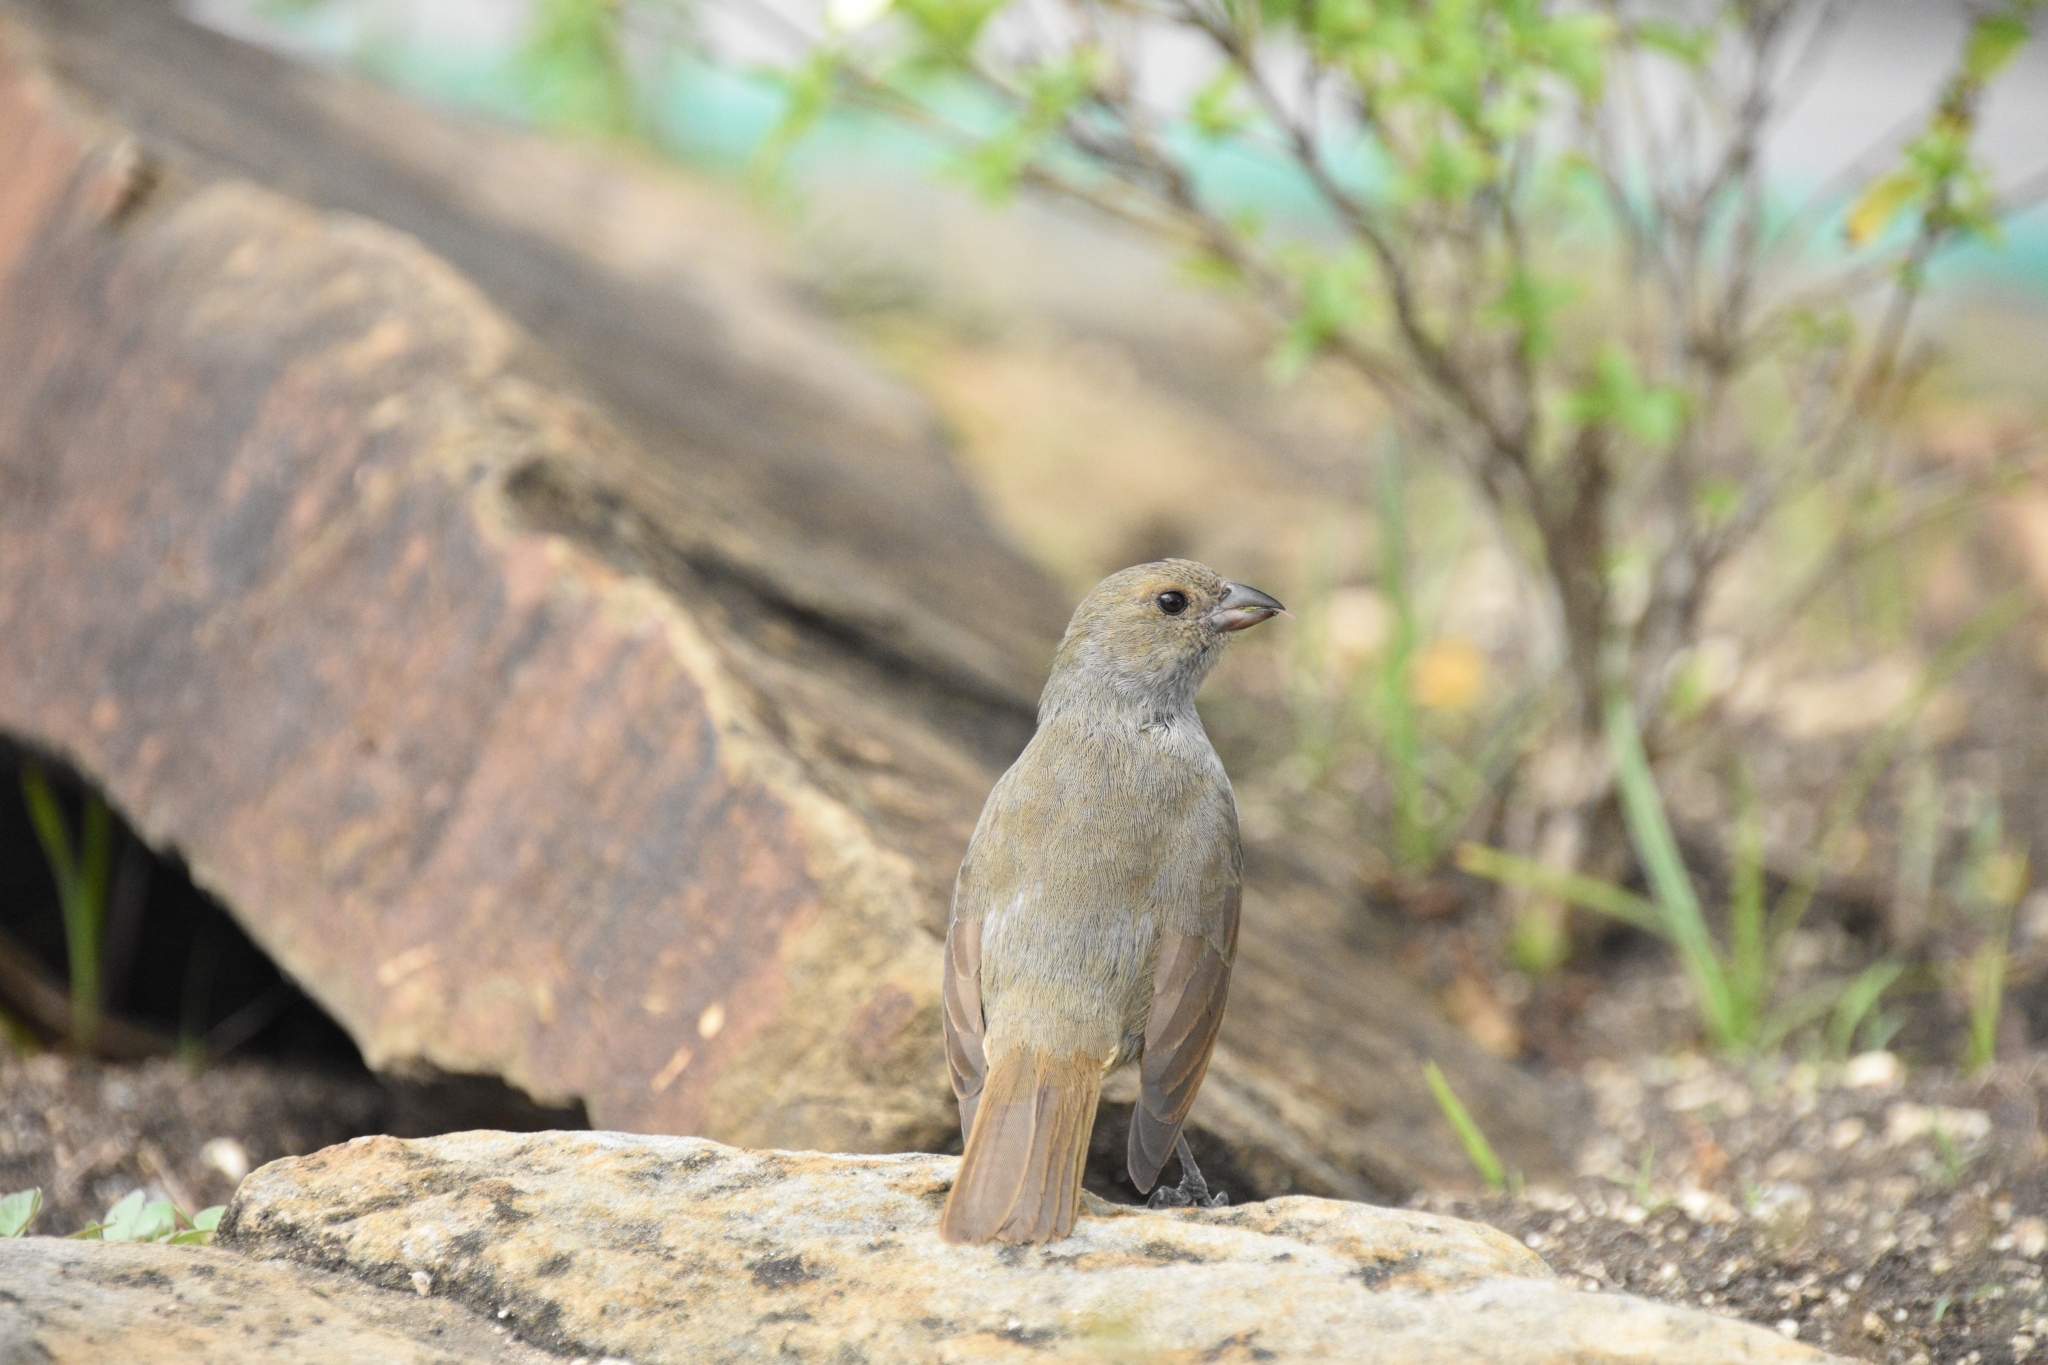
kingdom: Animalia
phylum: Chordata
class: Aves
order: Passeriformes
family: Thraupidae
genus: Loxigilla
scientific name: Loxigilla barbadensis
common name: Barbados bullfinch
